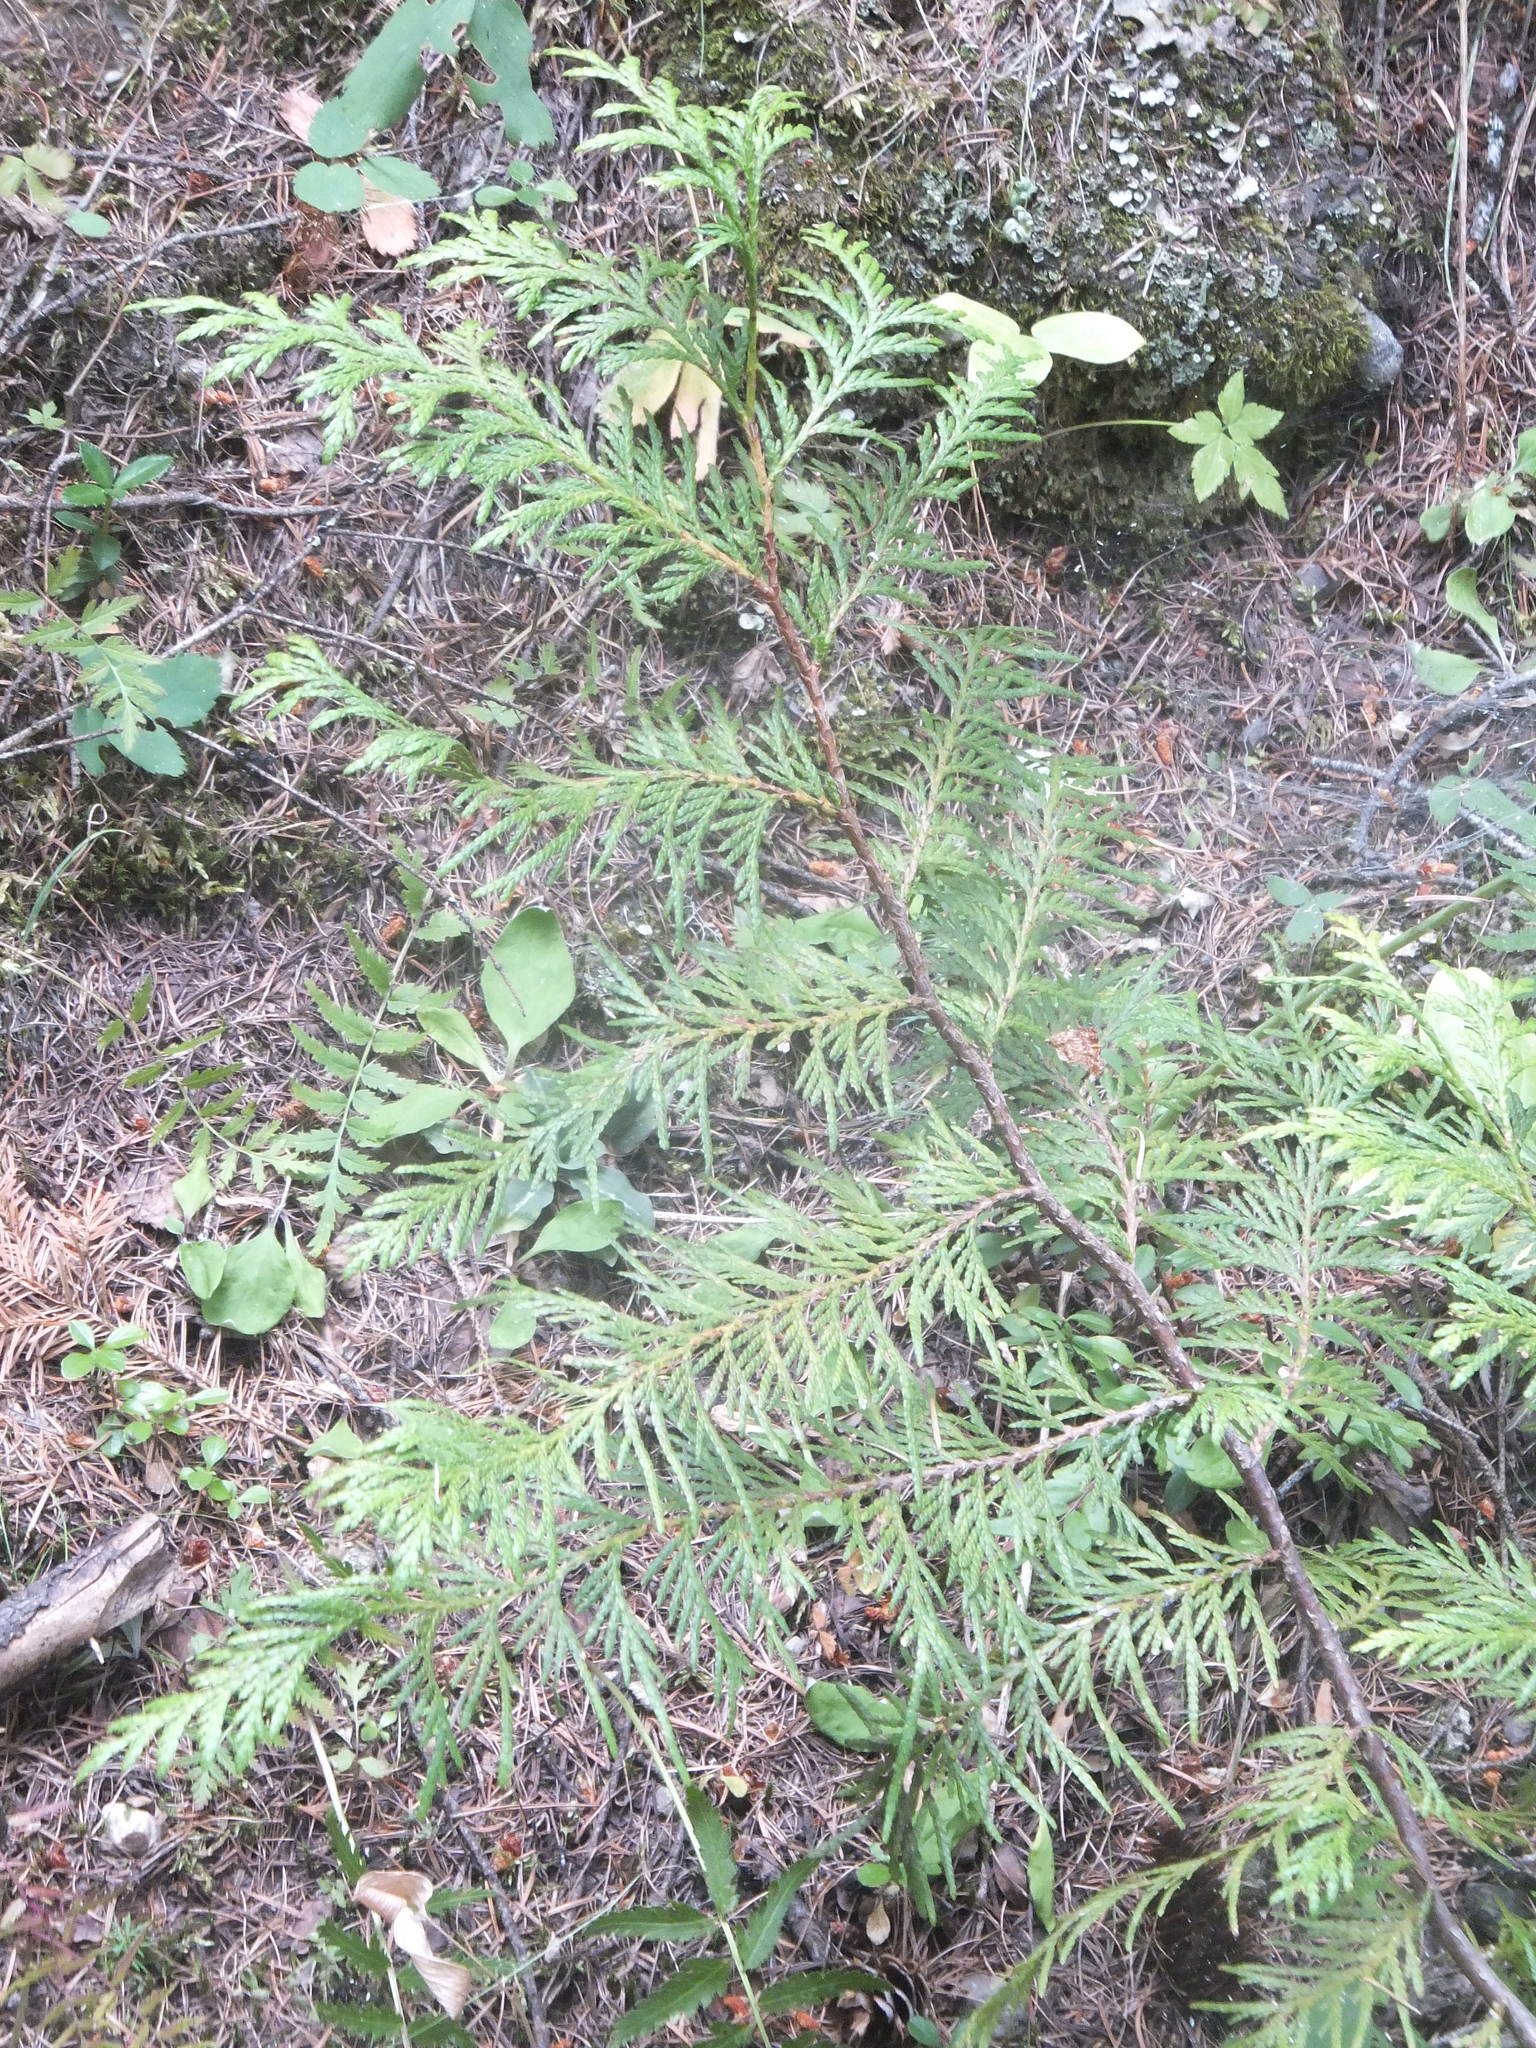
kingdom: Plantae
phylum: Tracheophyta
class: Pinopsida
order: Pinales
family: Cupressaceae
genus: Thuja
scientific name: Thuja plicata
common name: Western red-cedar
